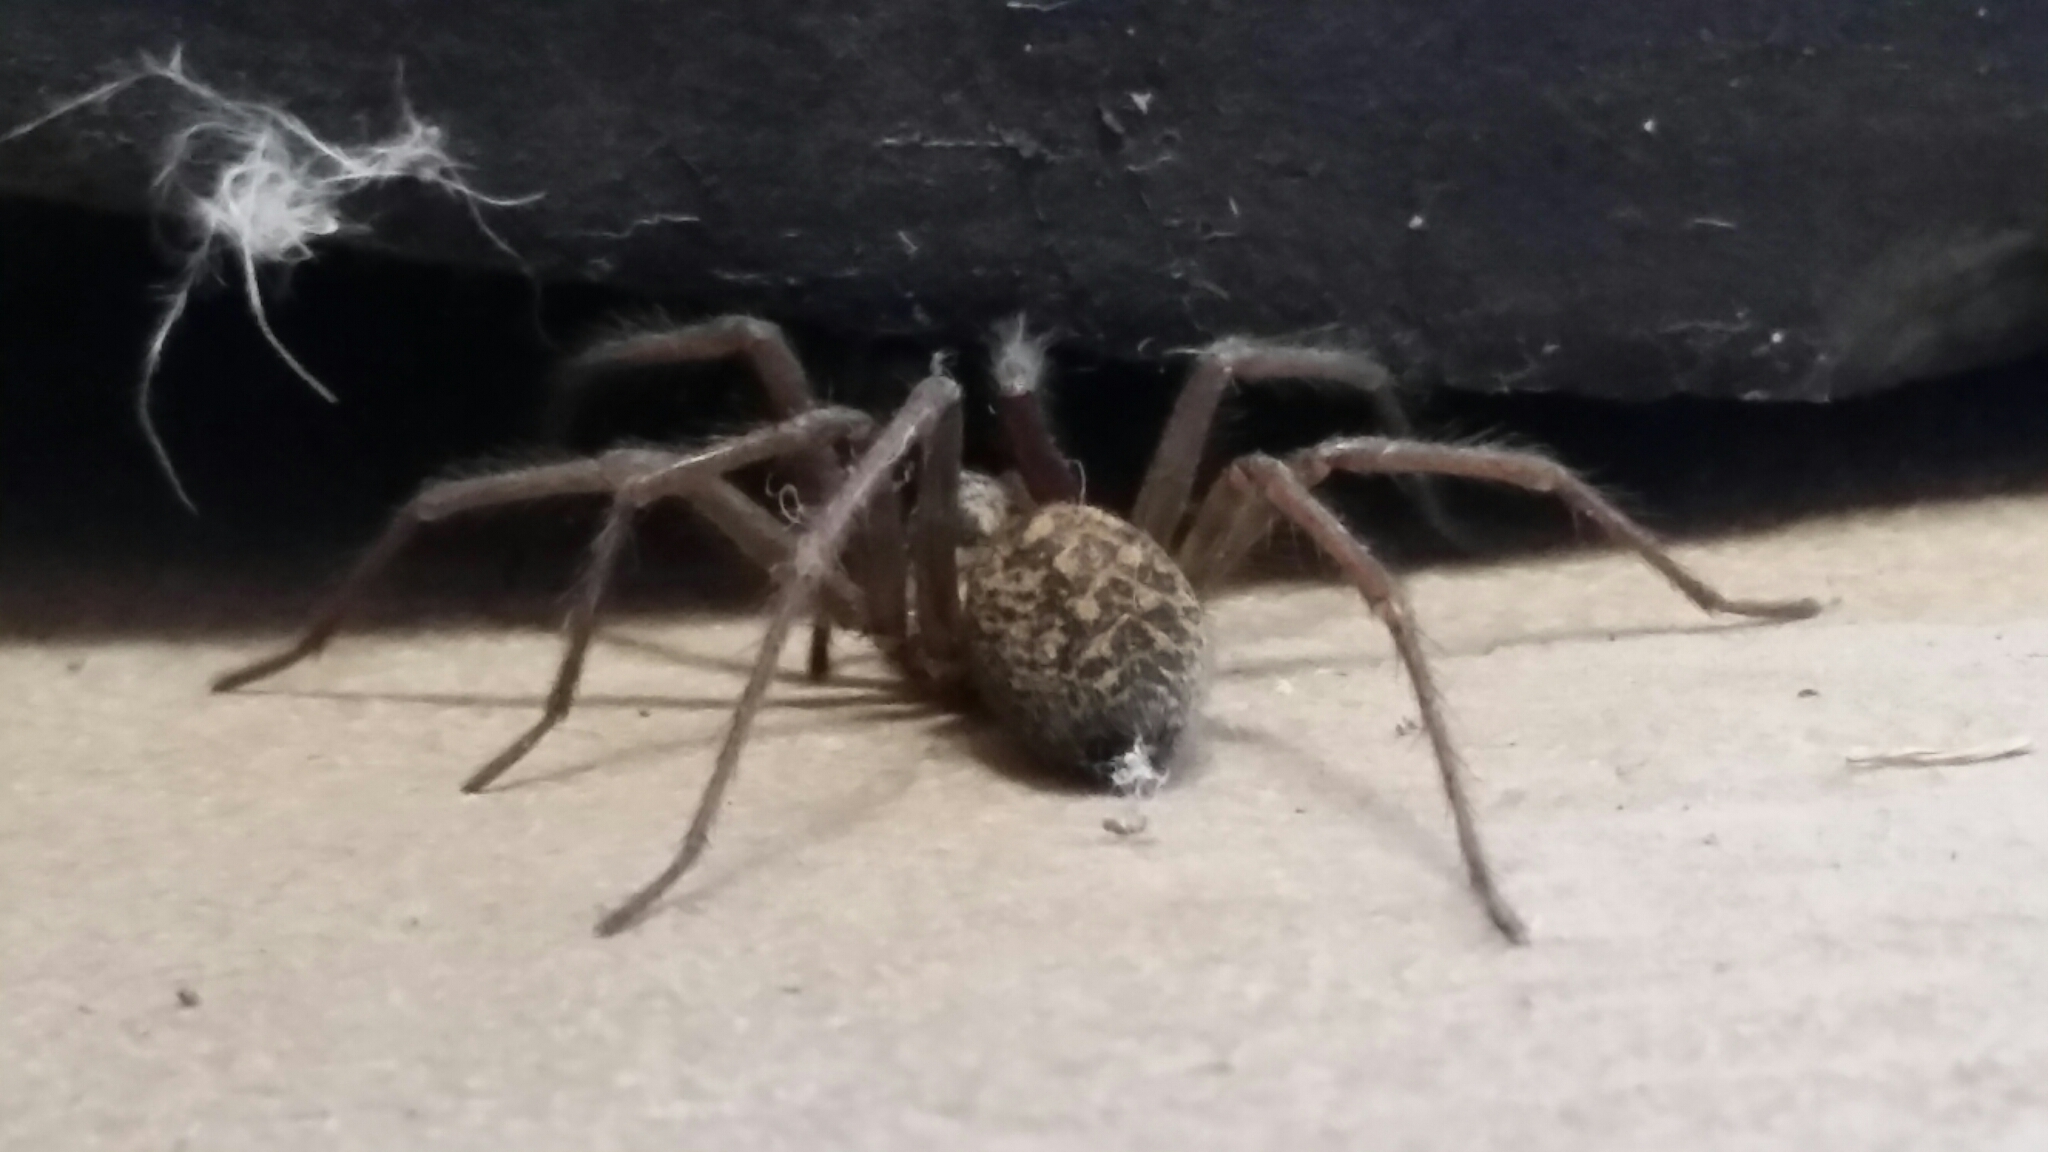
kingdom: Animalia
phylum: Arthropoda
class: Arachnida
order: Araneae
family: Agelenidae
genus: Eratigena
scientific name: Eratigena duellica
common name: Giant house spider
